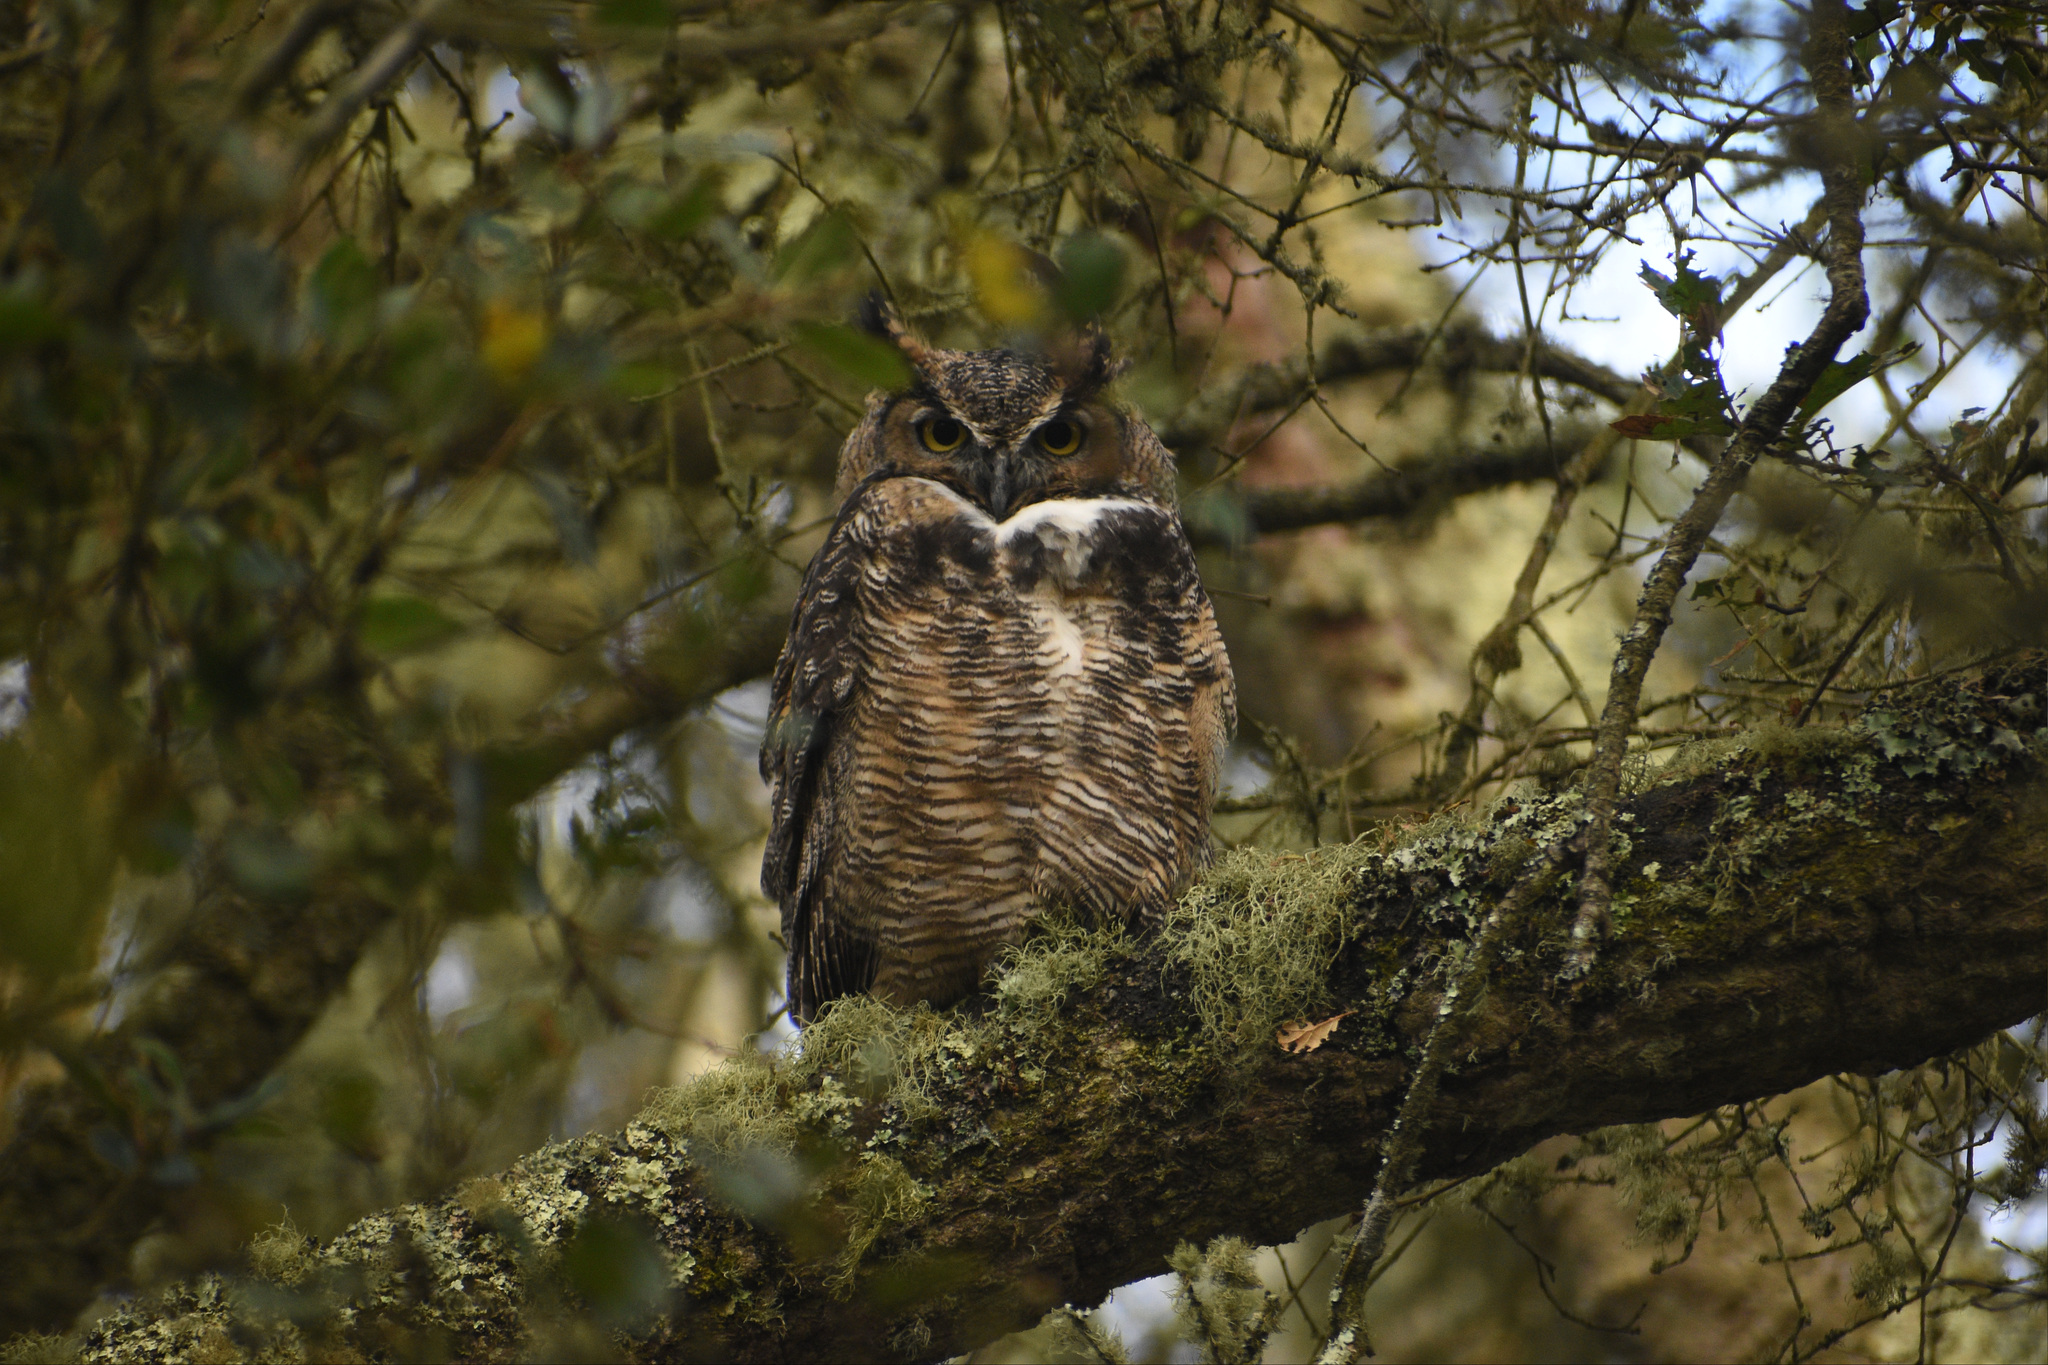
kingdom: Animalia
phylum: Chordata
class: Aves
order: Strigiformes
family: Strigidae
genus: Bubo
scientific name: Bubo virginianus
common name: Great horned owl
